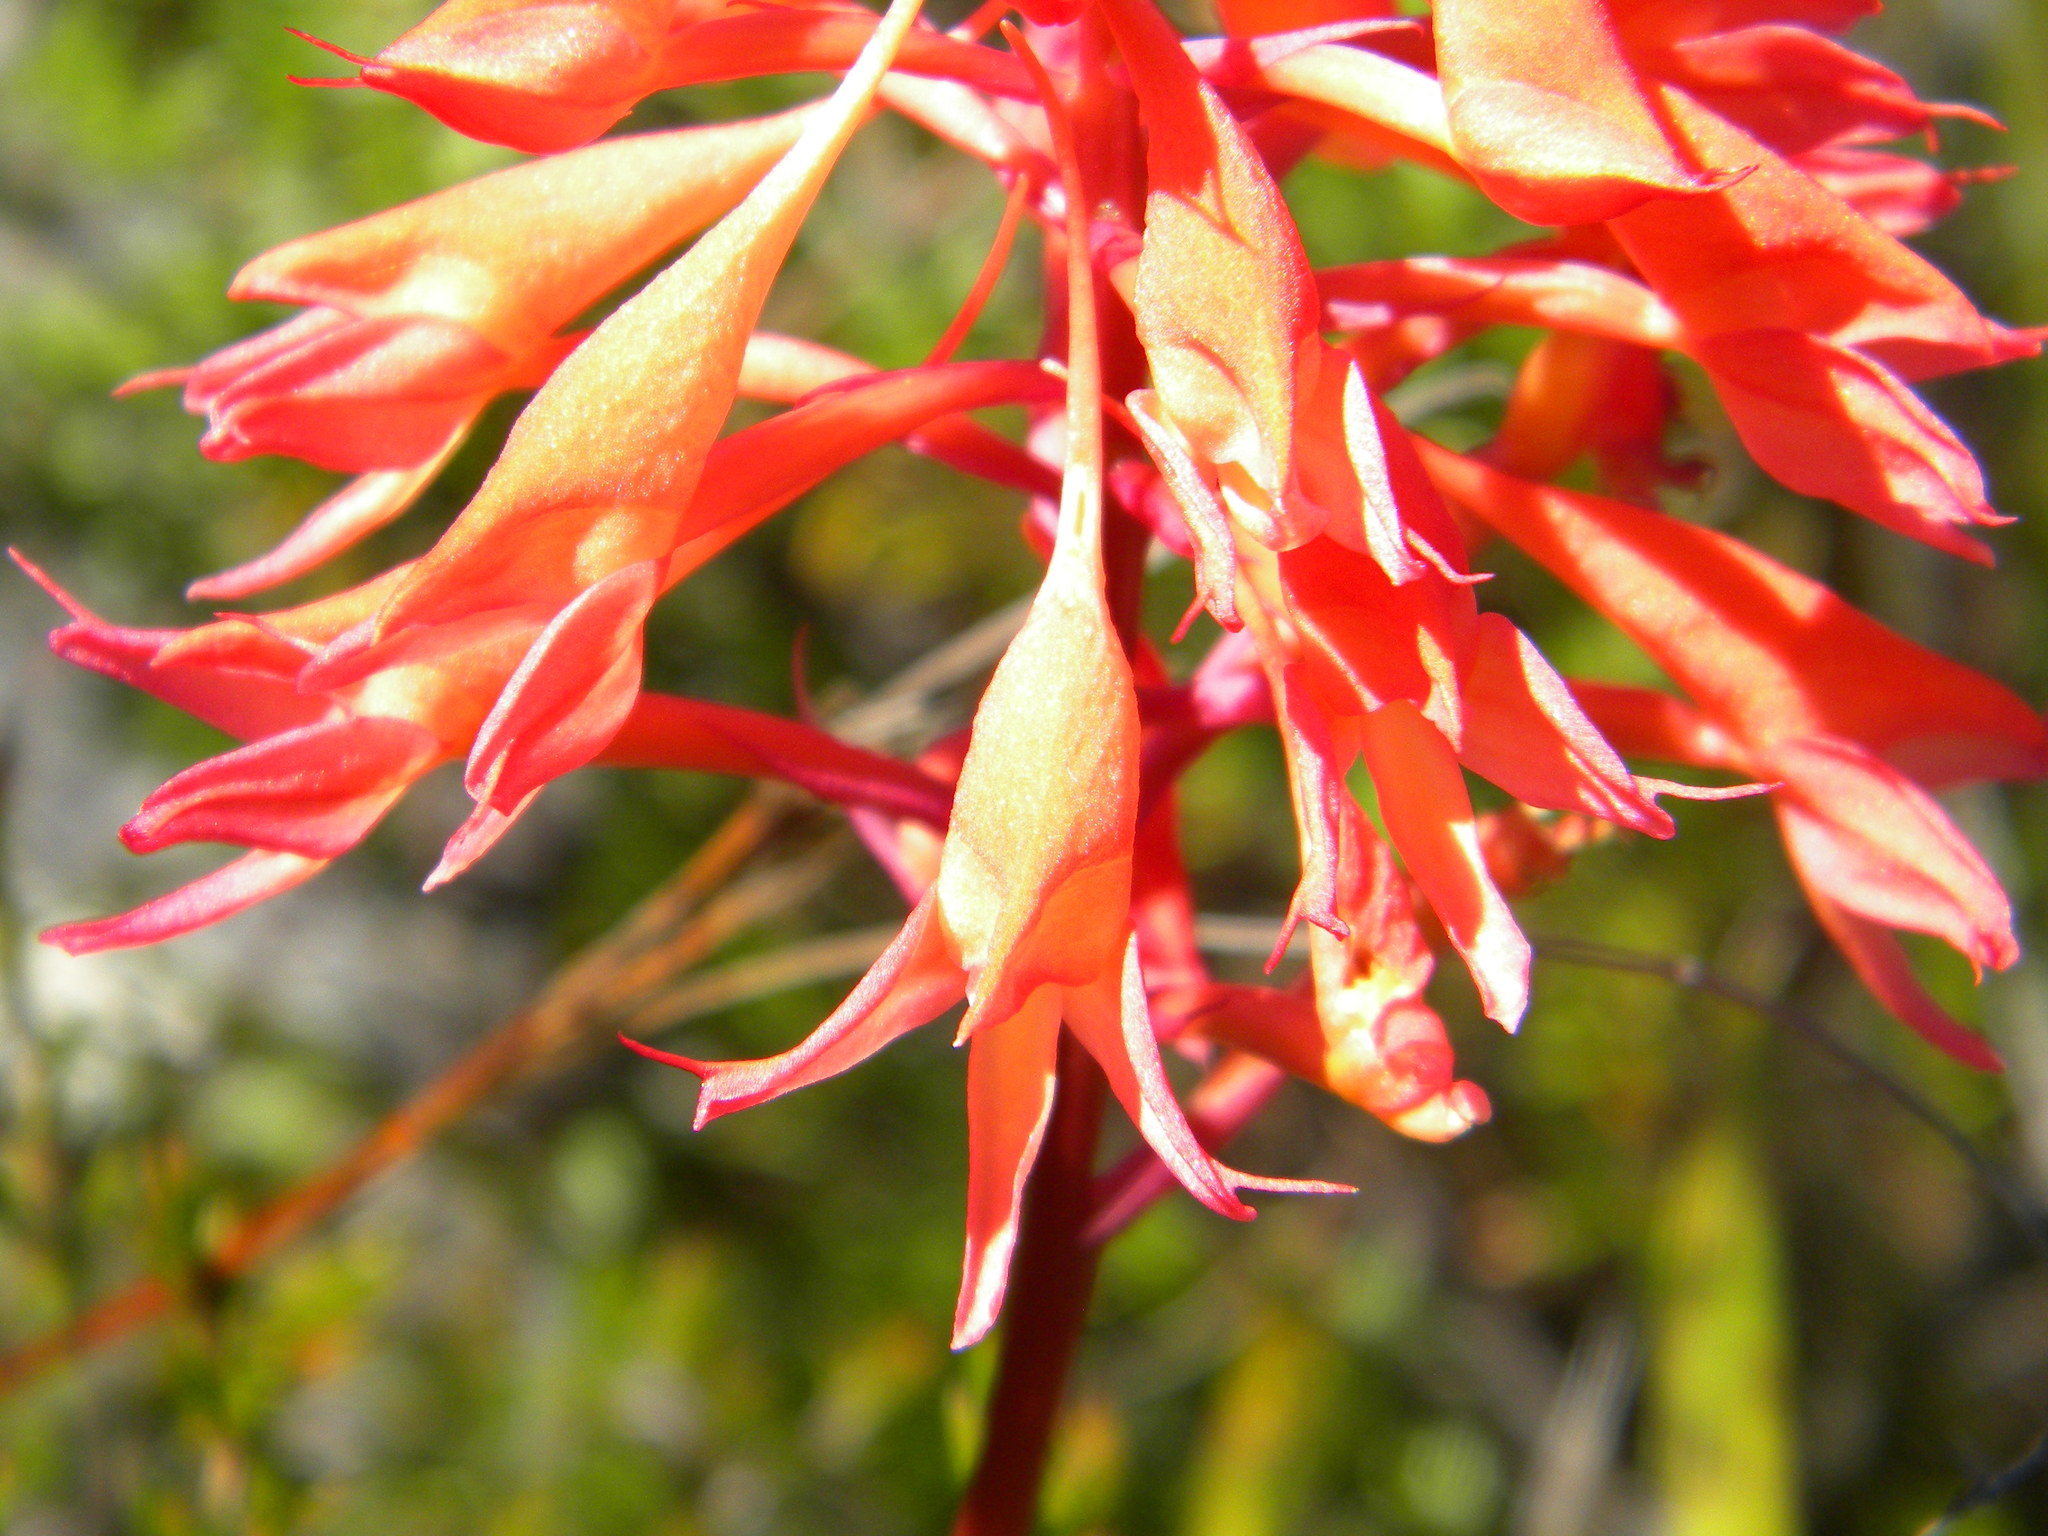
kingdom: Plantae
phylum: Tracheophyta
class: Liliopsida
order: Asparagales
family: Orchidaceae
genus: Disa
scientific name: Disa ferruginea
